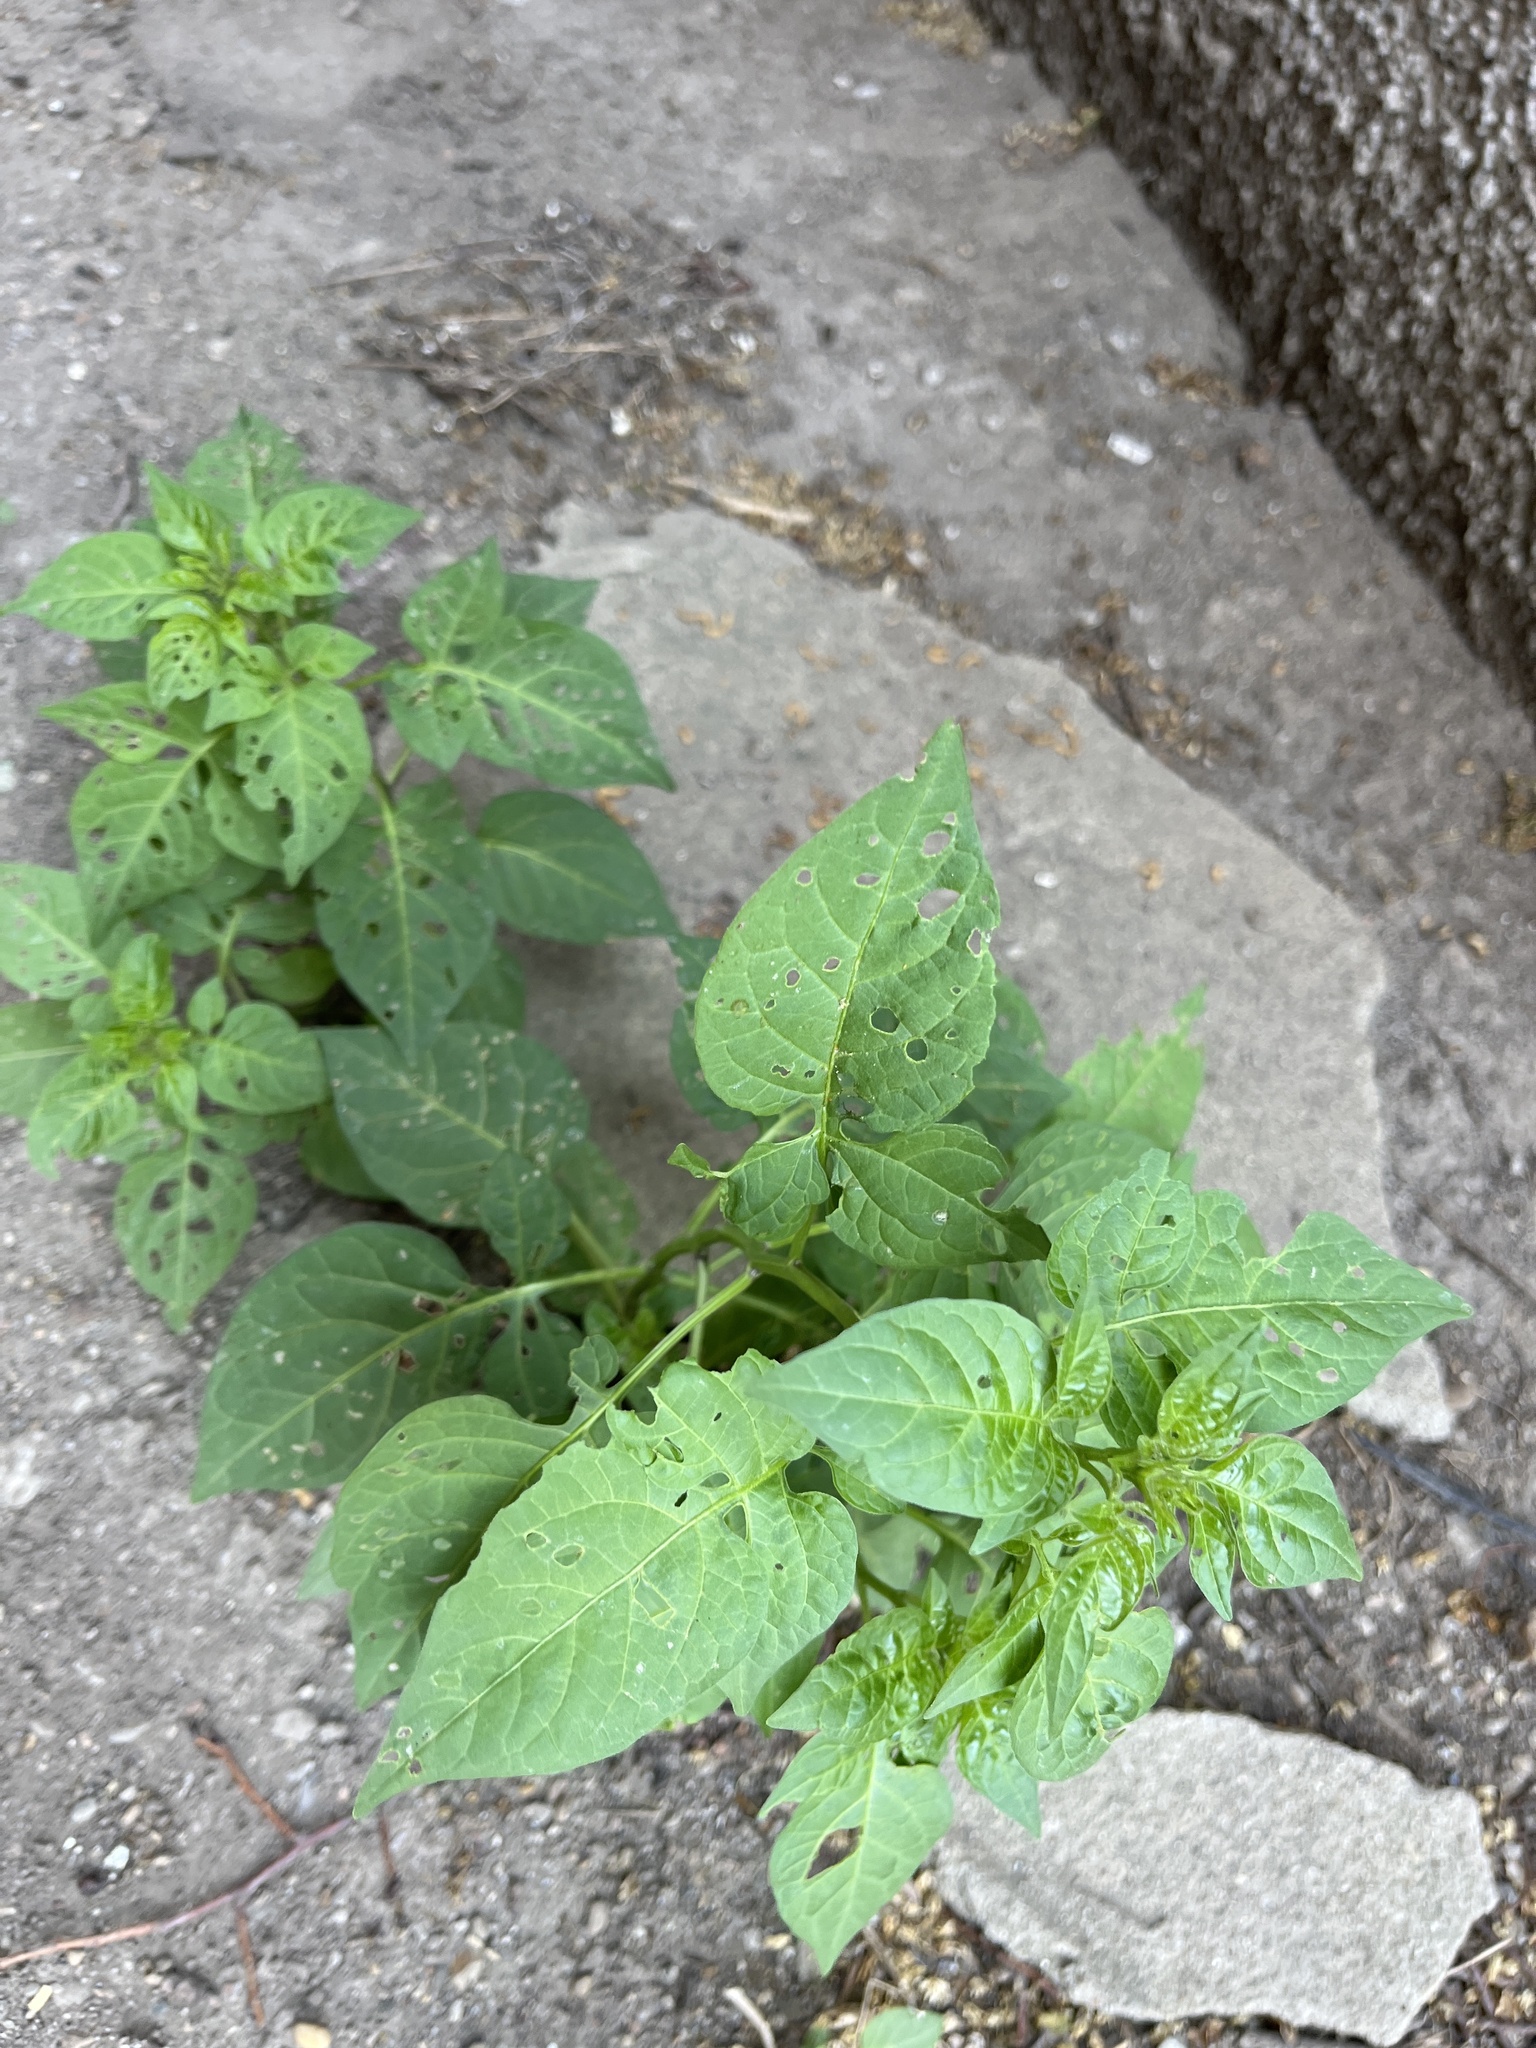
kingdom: Plantae
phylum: Tracheophyta
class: Magnoliopsida
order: Solanales
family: Solanaceae
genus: Solanum
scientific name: Solanum dulcamara
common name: Climbing nightshade
